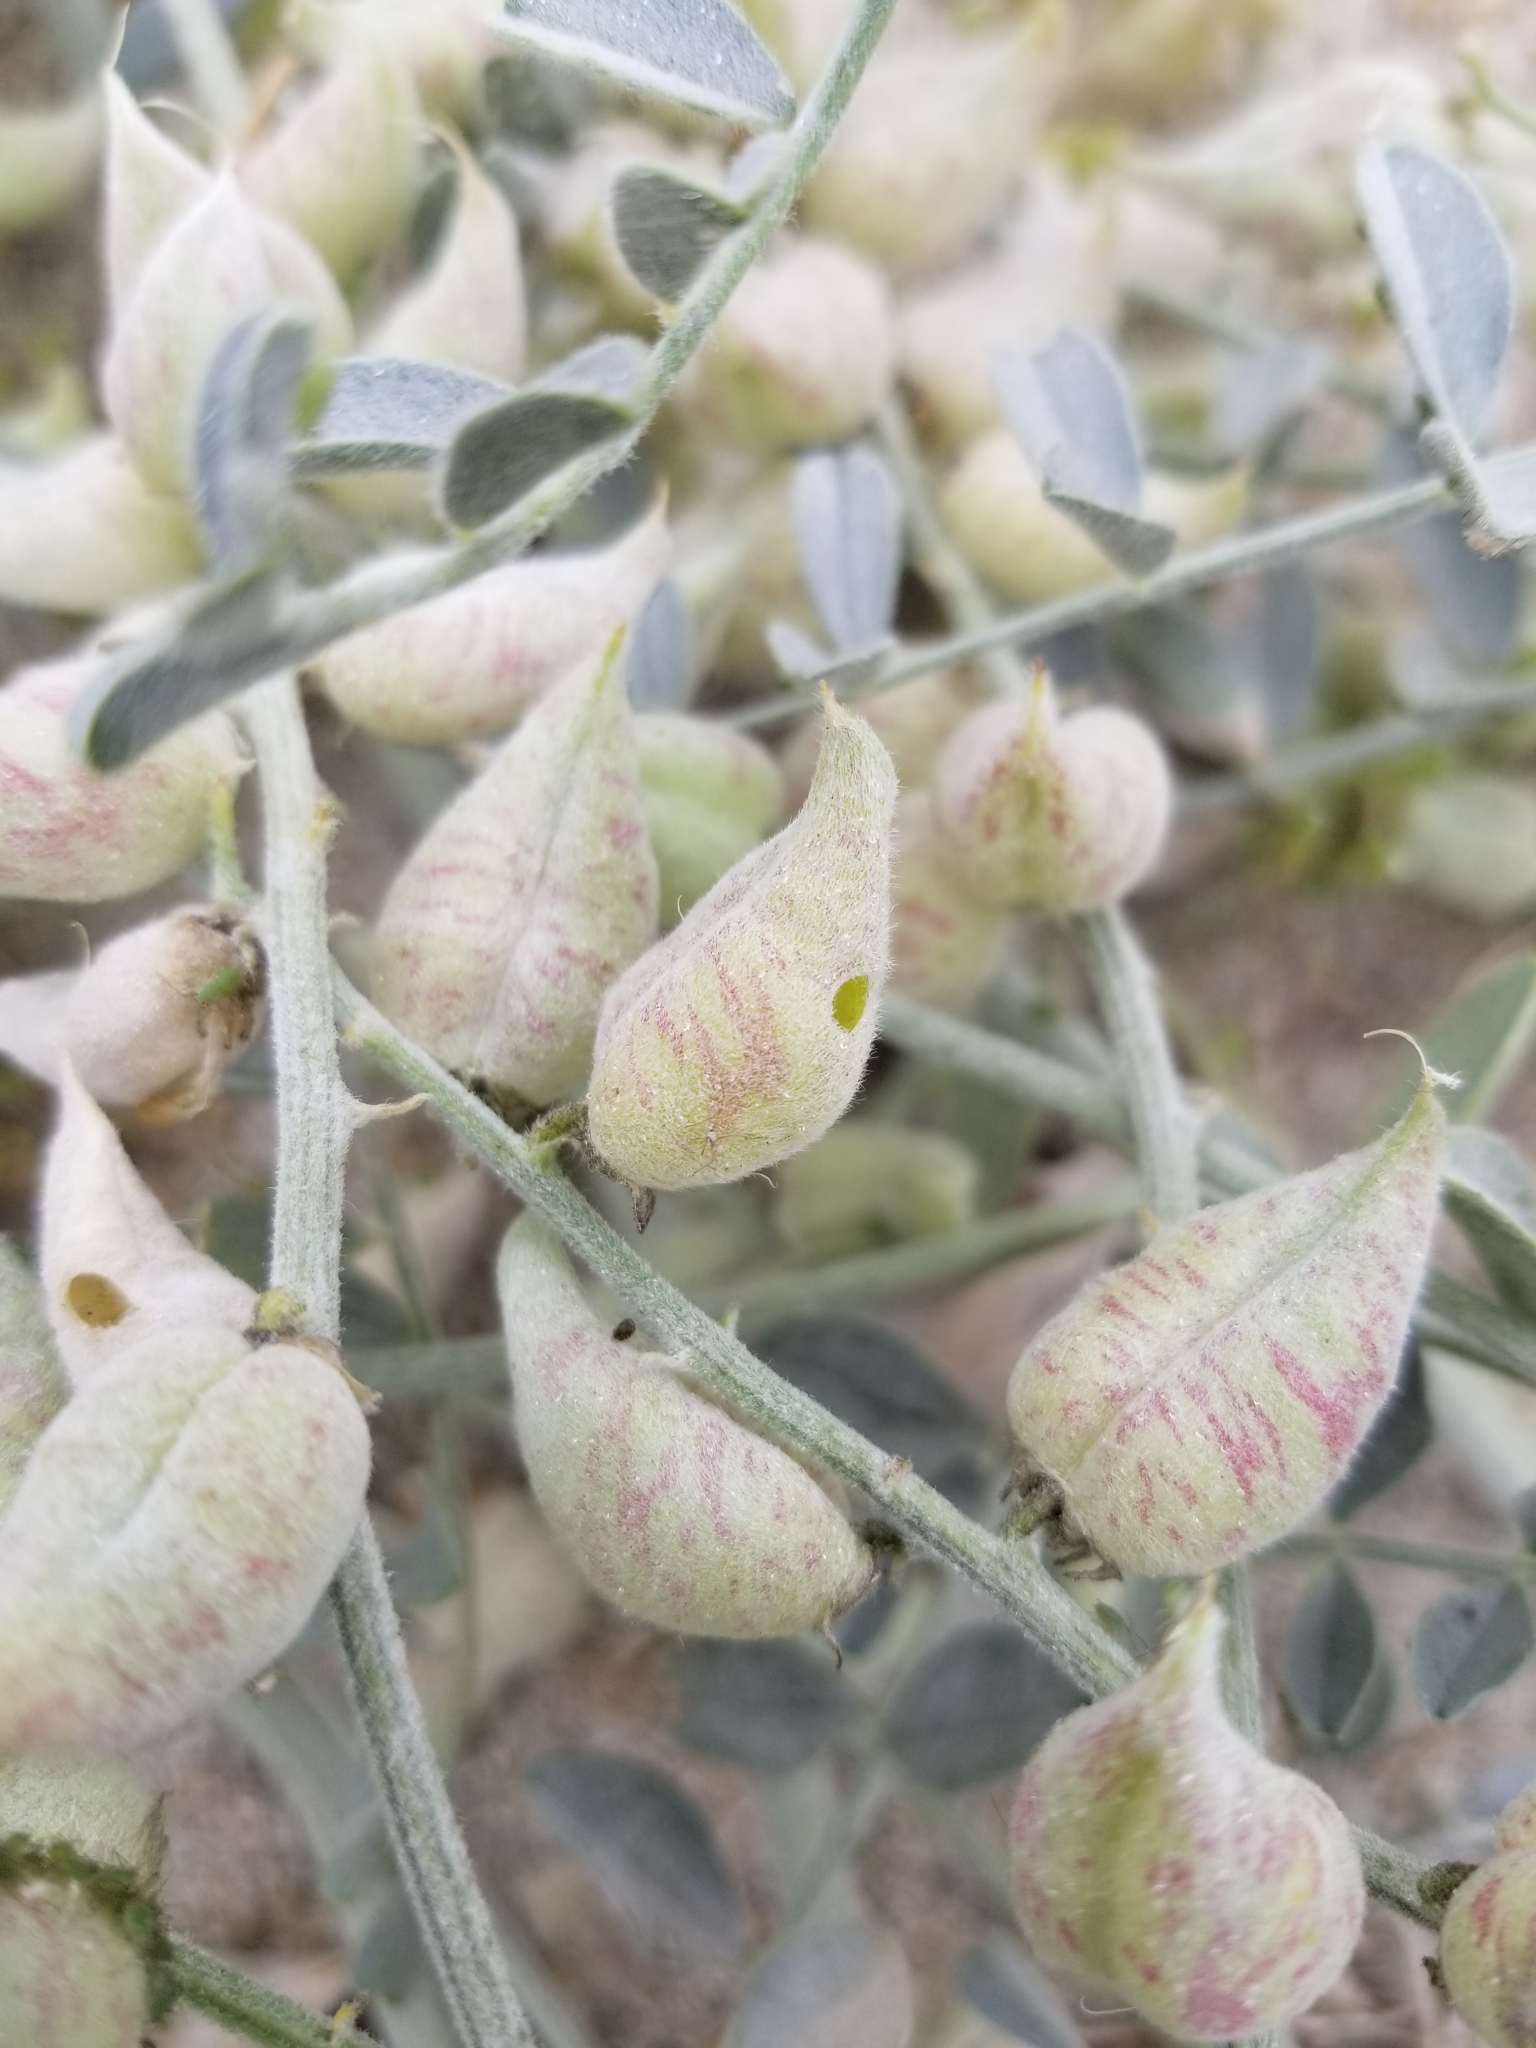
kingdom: Plantae
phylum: Tracheophyta
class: Magnoliopsida
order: Fabales
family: Fabaceae
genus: Astragalus
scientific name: Astragalus lentiginosus
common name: Freckled milkvetch
